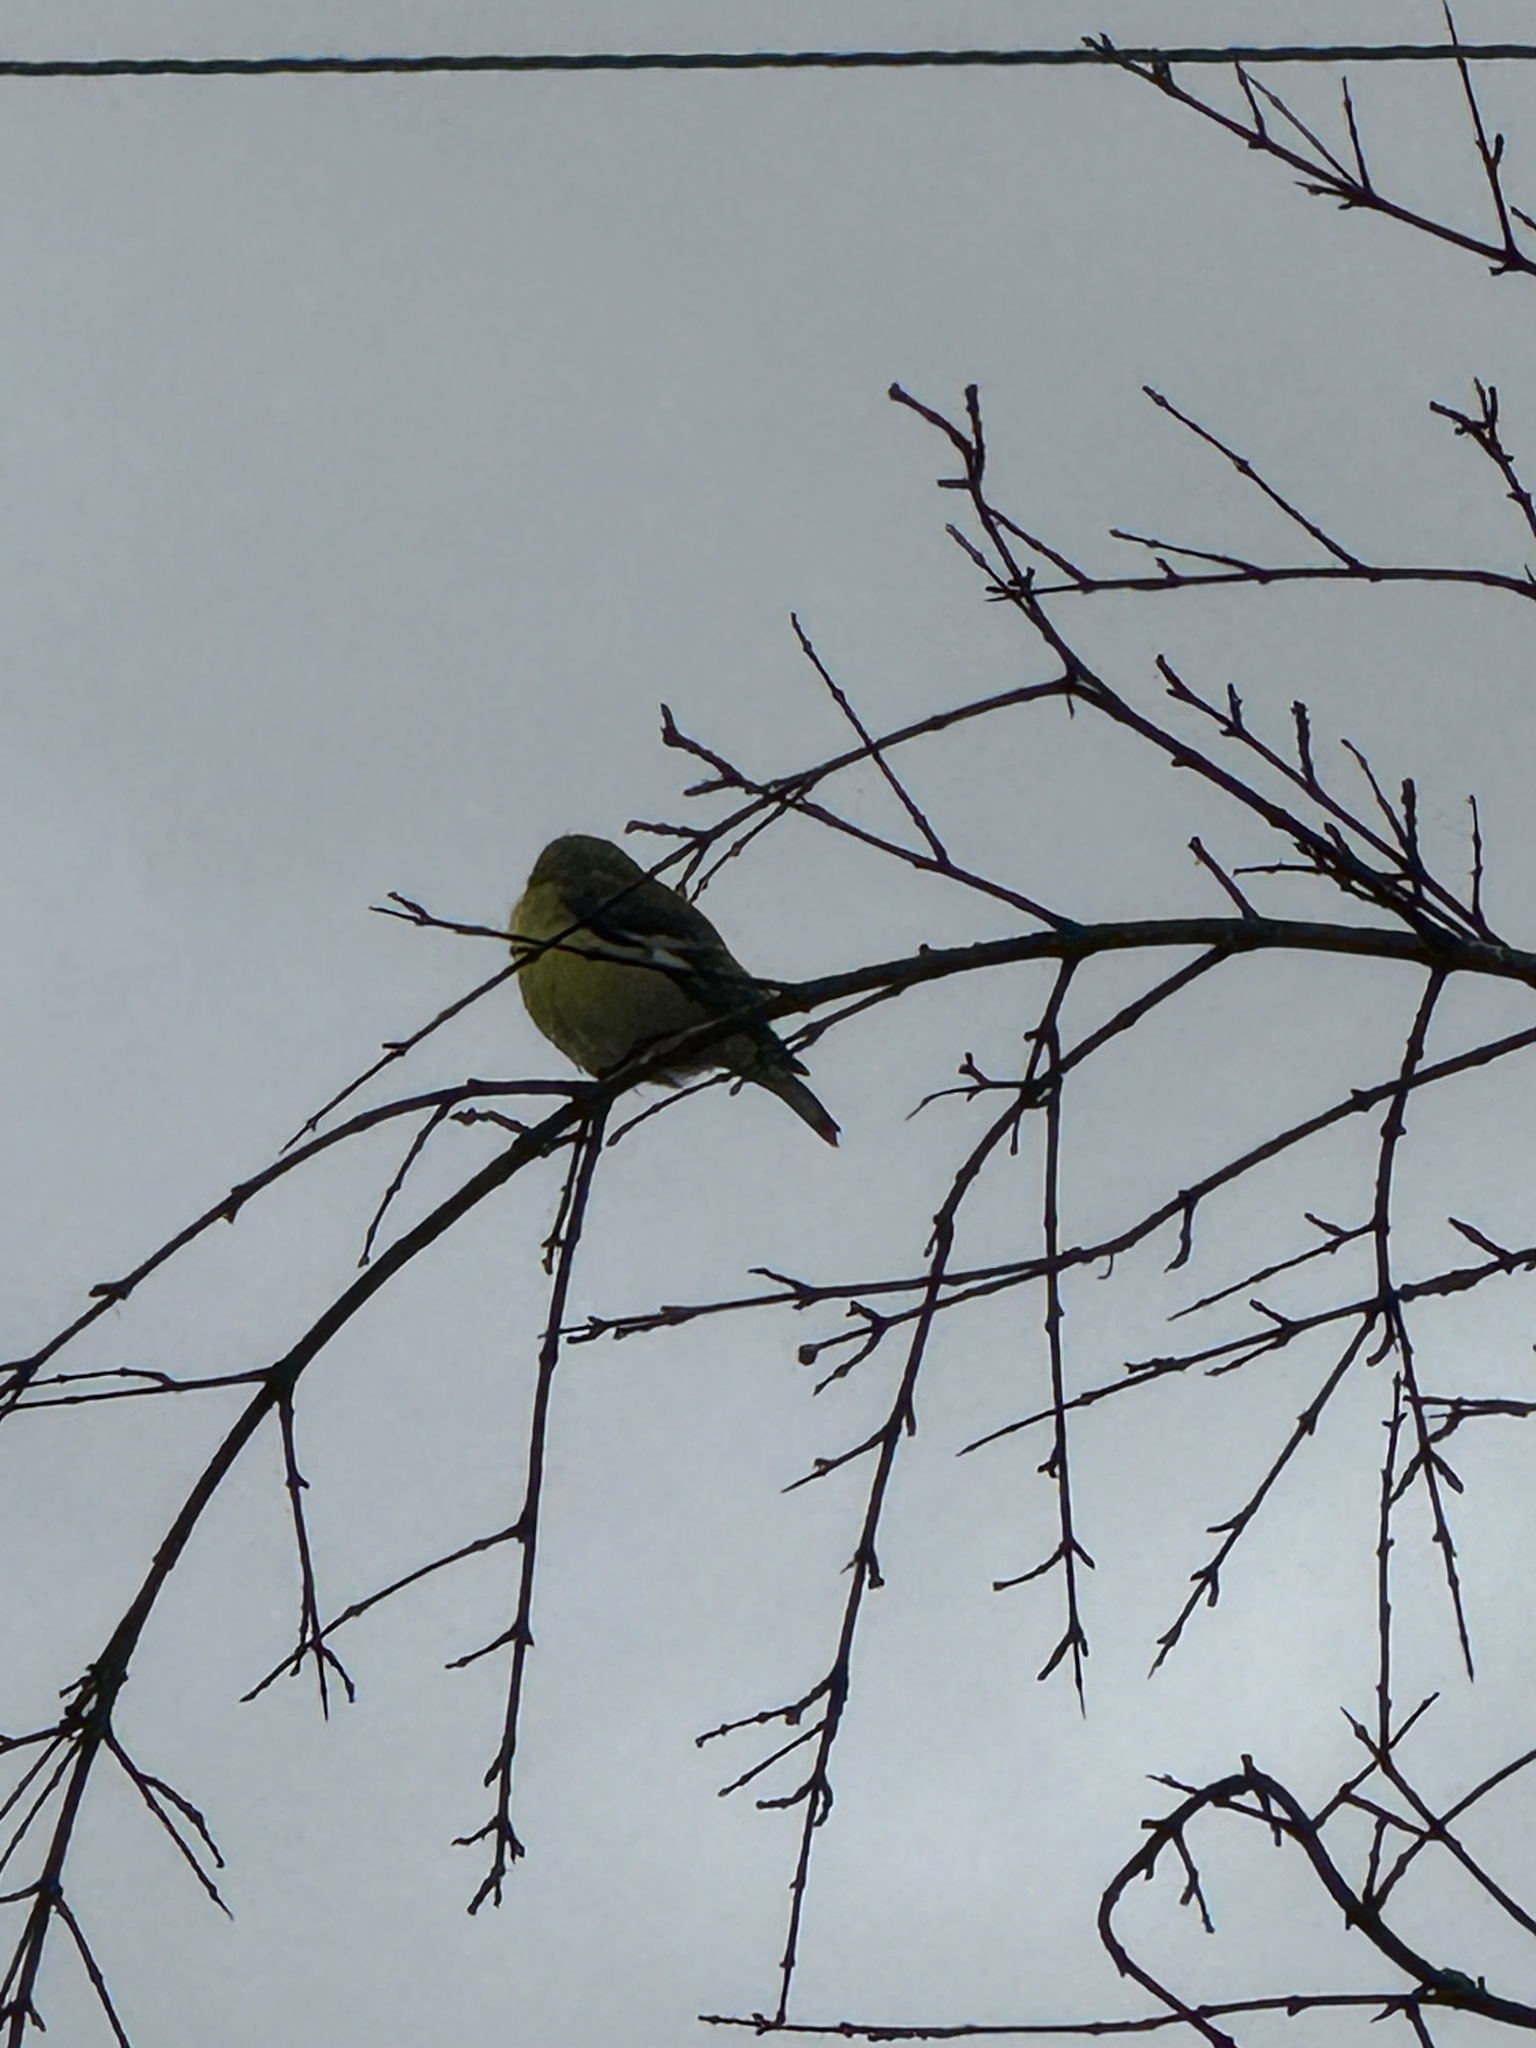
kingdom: Animalia
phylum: Chordata
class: Aves
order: Passeriformes
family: Fringillidae
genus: Spinus
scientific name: Spinus psaltria
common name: Lesser goldfinch
